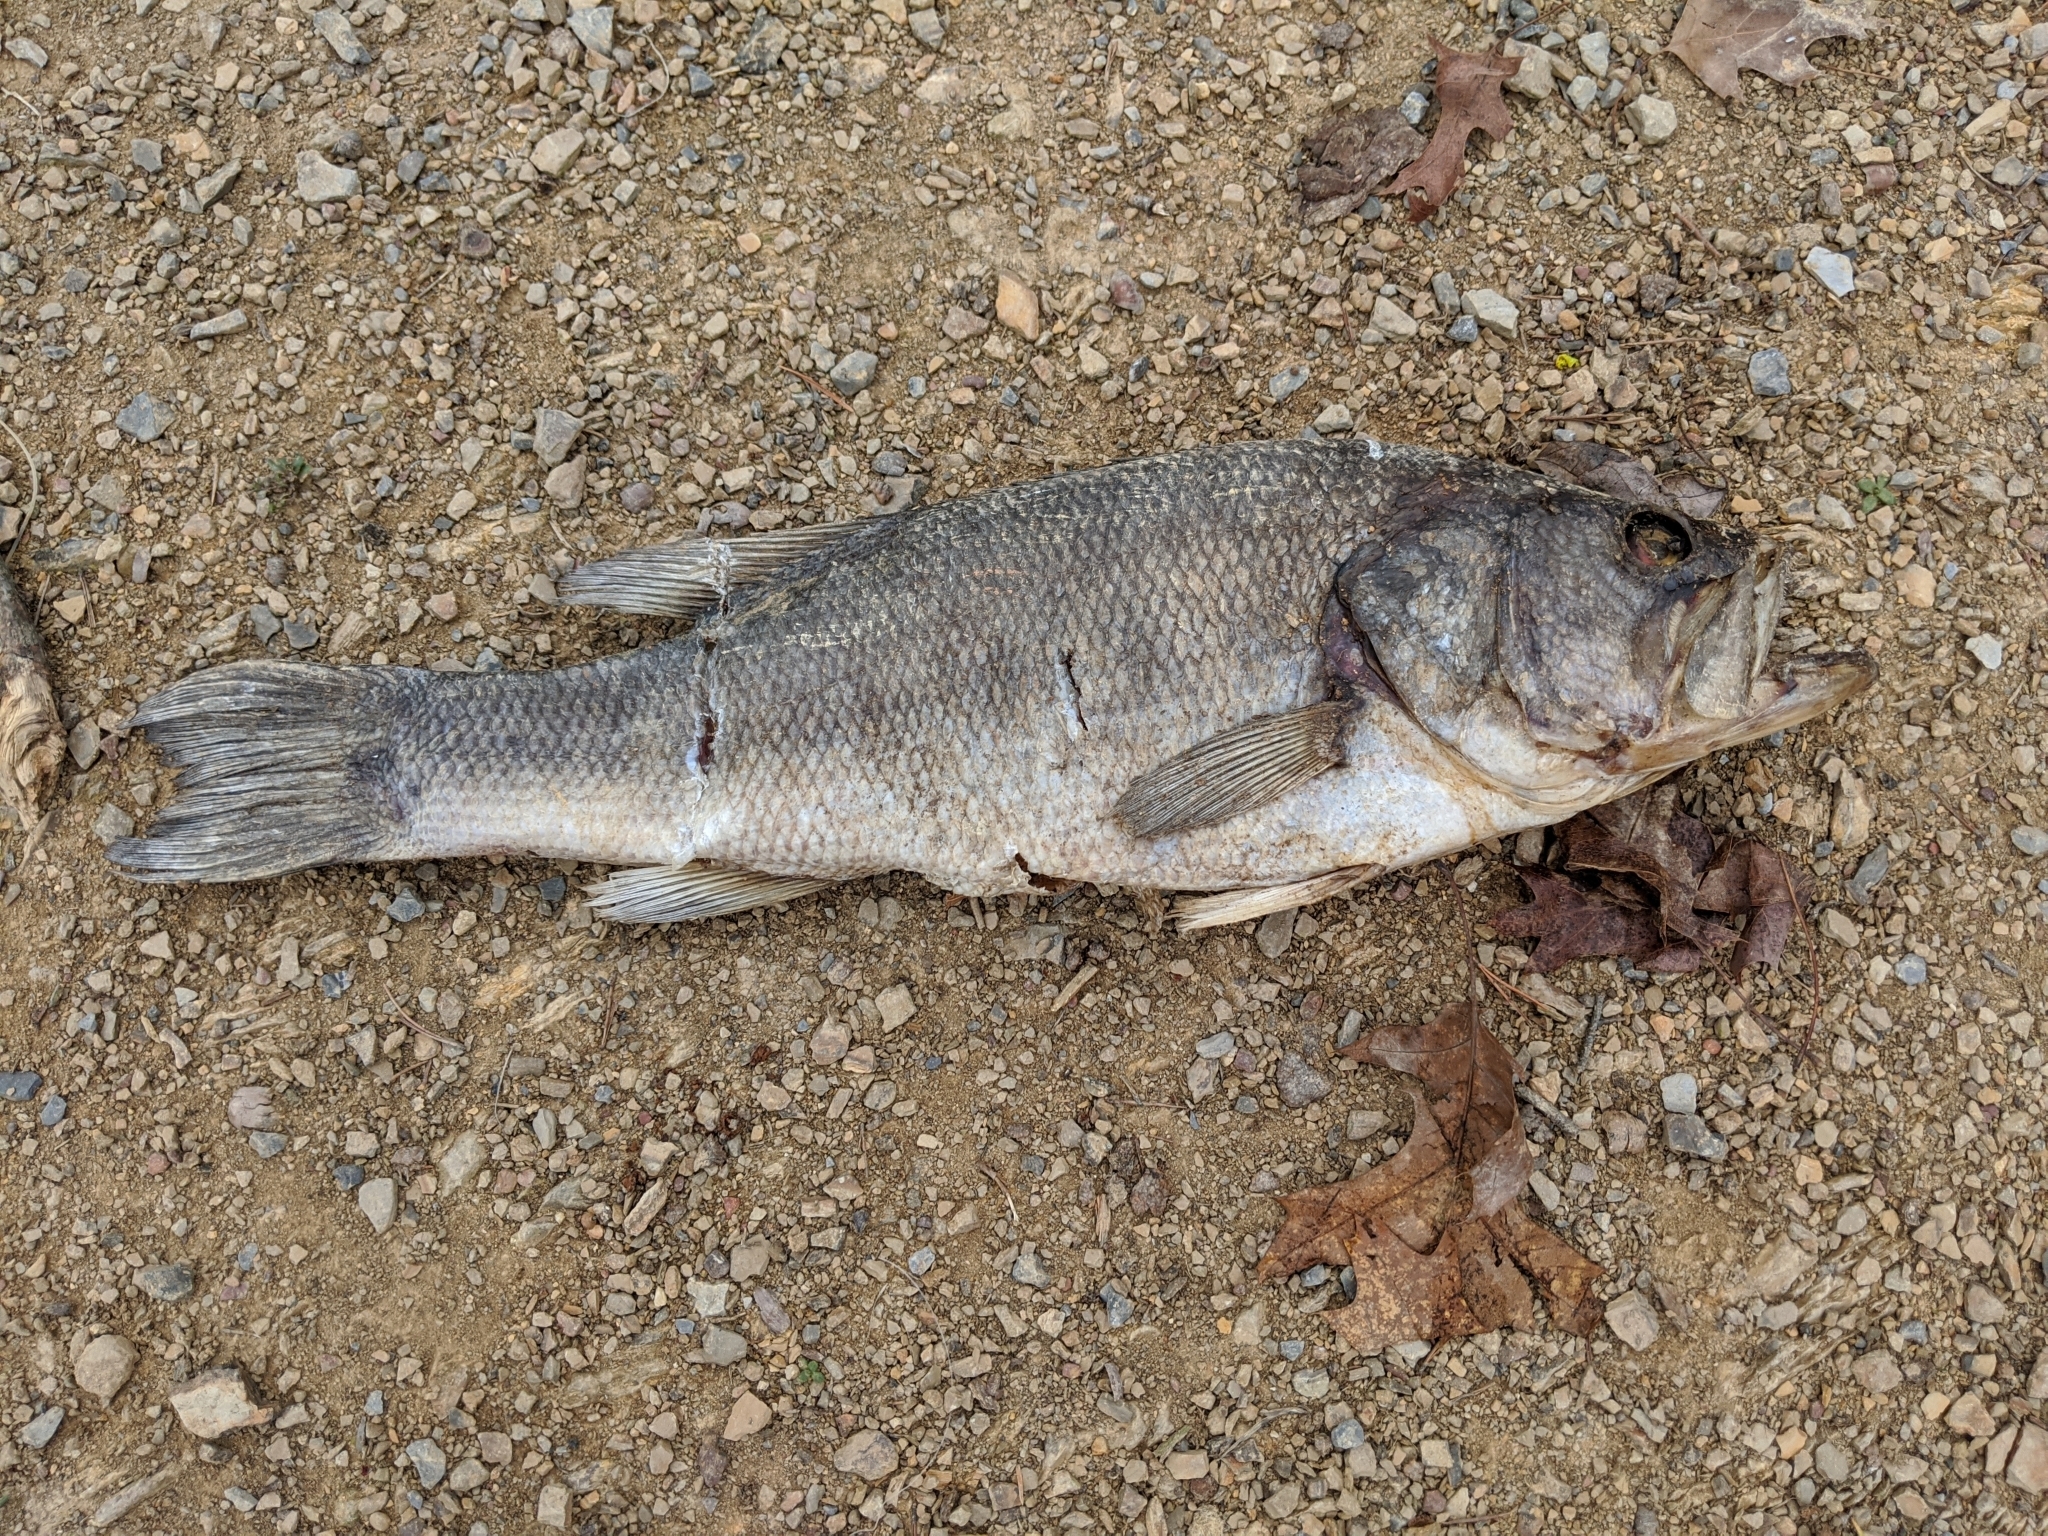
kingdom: Animalia
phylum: Chordata
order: Perciformes
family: Centrarchidae
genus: Micropterus
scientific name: Micropterus
